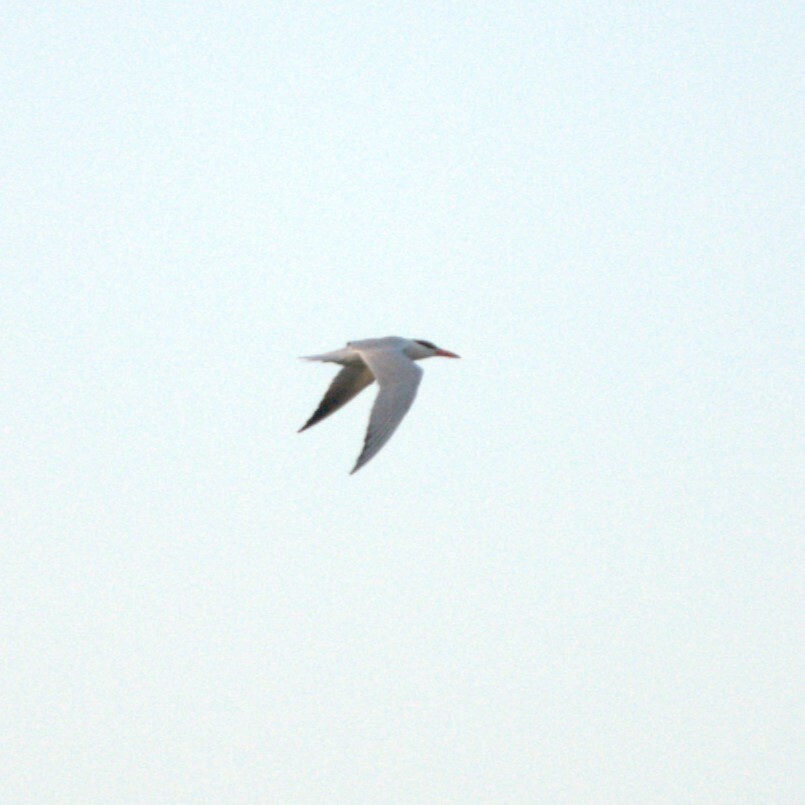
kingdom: Animalia
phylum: Chordata
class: Aves
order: Charadriiformes
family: Laridae
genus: Hydroprogne
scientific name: Hydroprogne caspia
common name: Caspian tern
